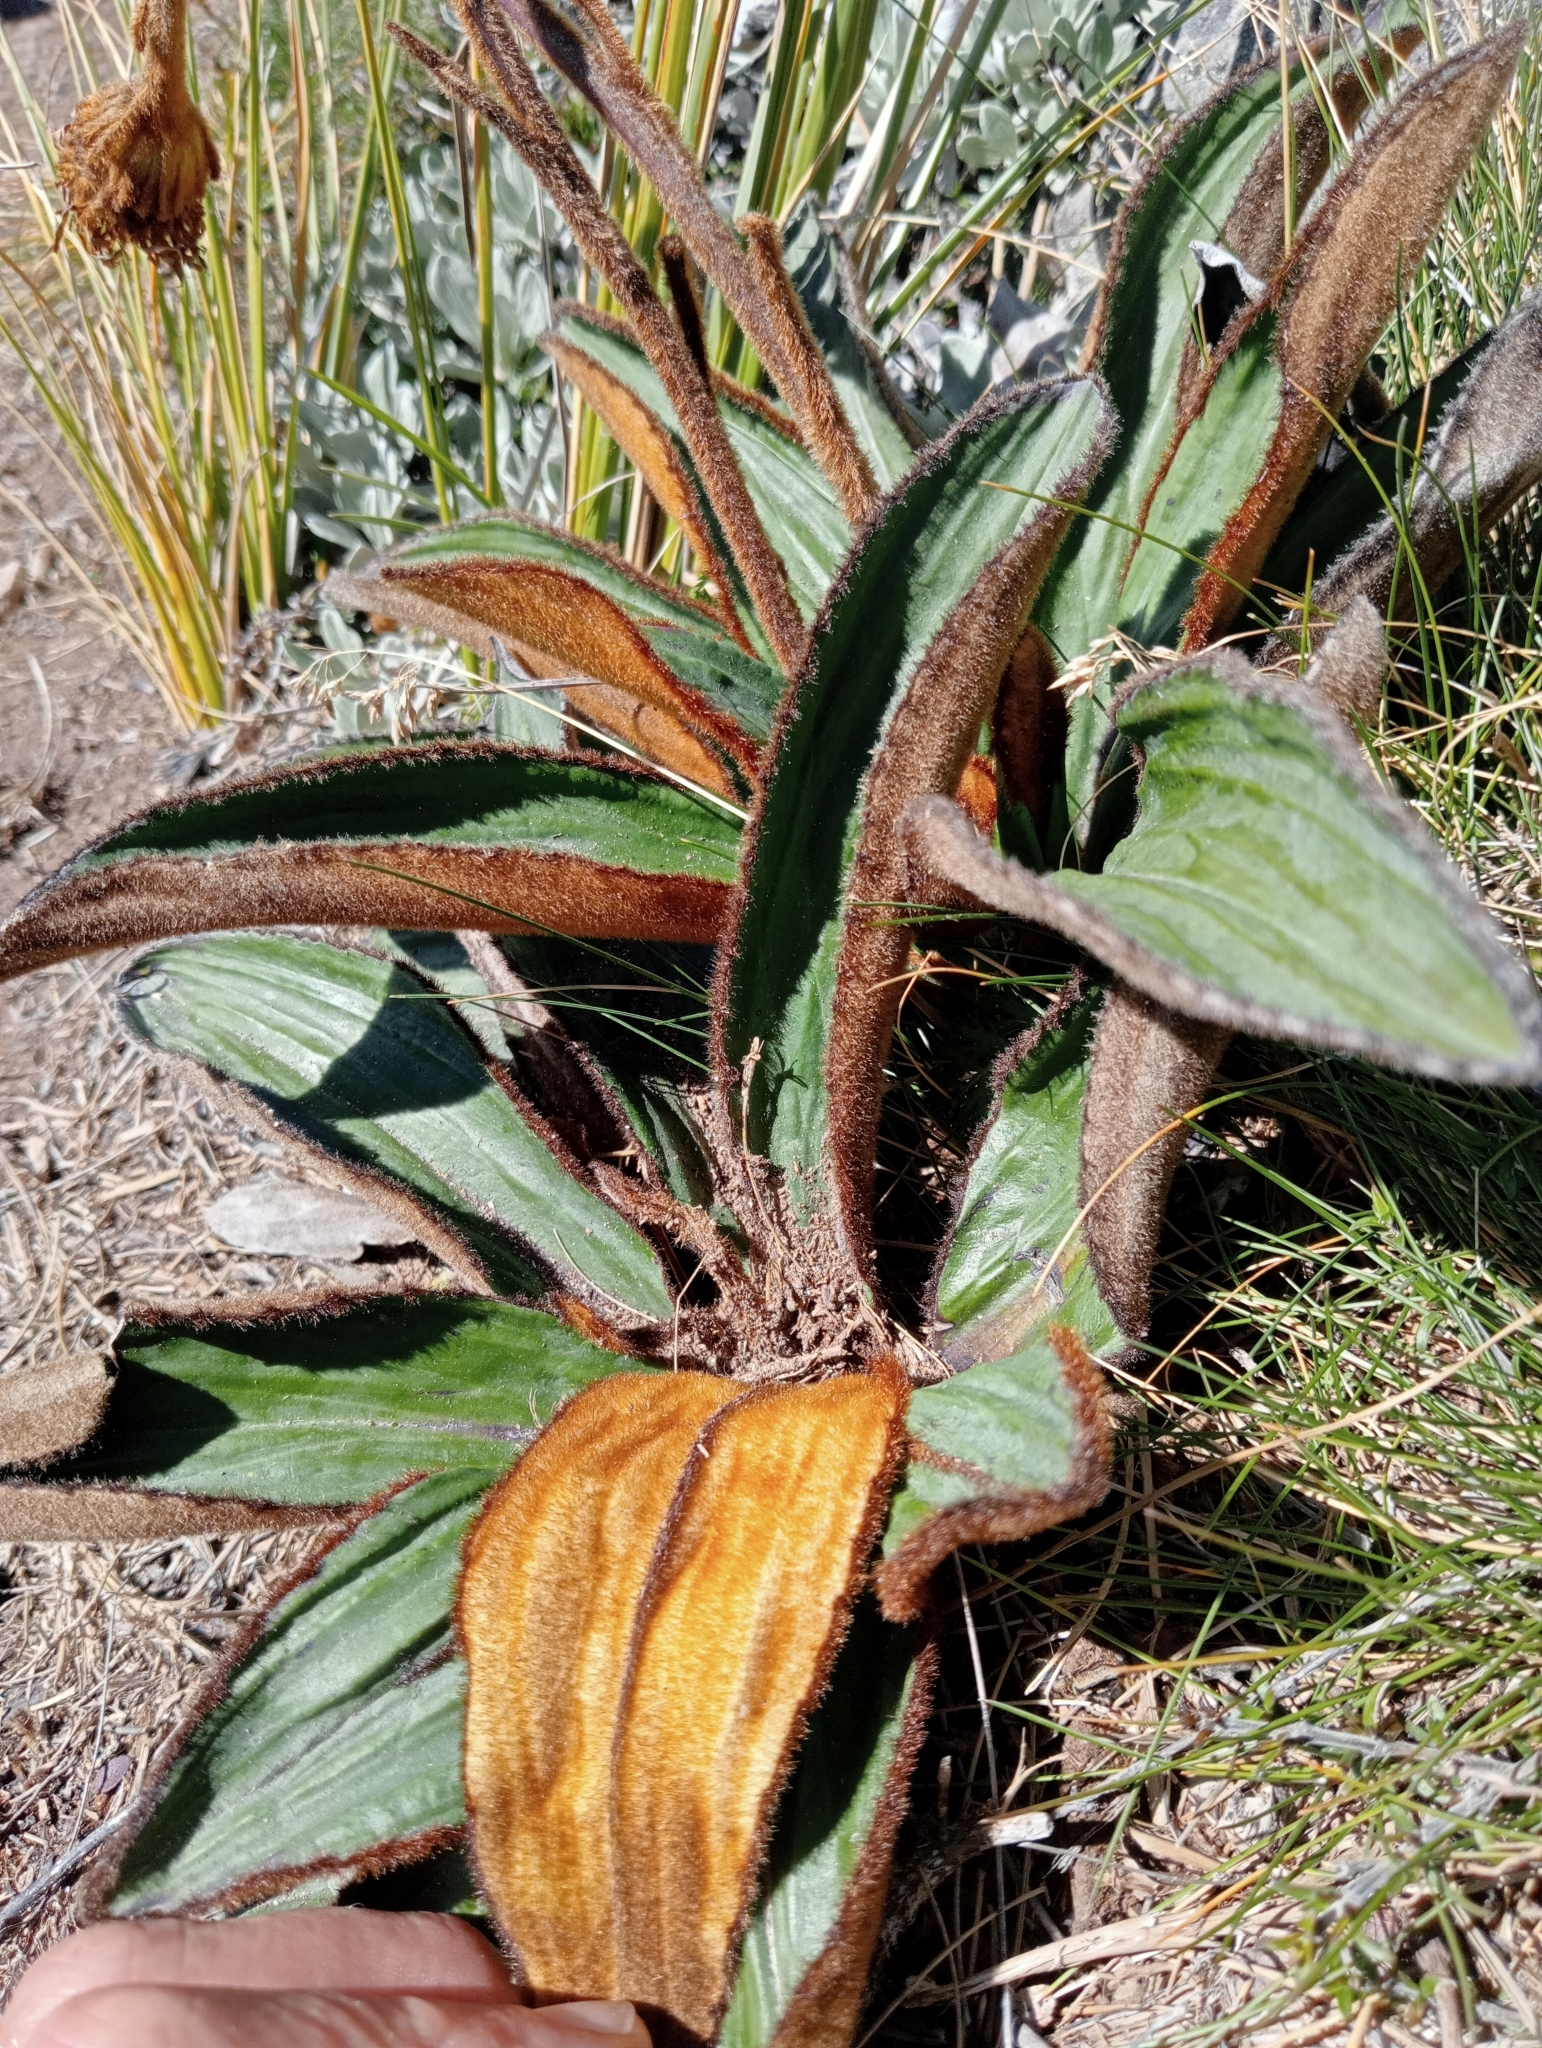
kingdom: Plantae
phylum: Tracheophyta
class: Magnoliopsida
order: Asterales
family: Asteraceae
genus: Celmisia
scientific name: Celmisia traversii
